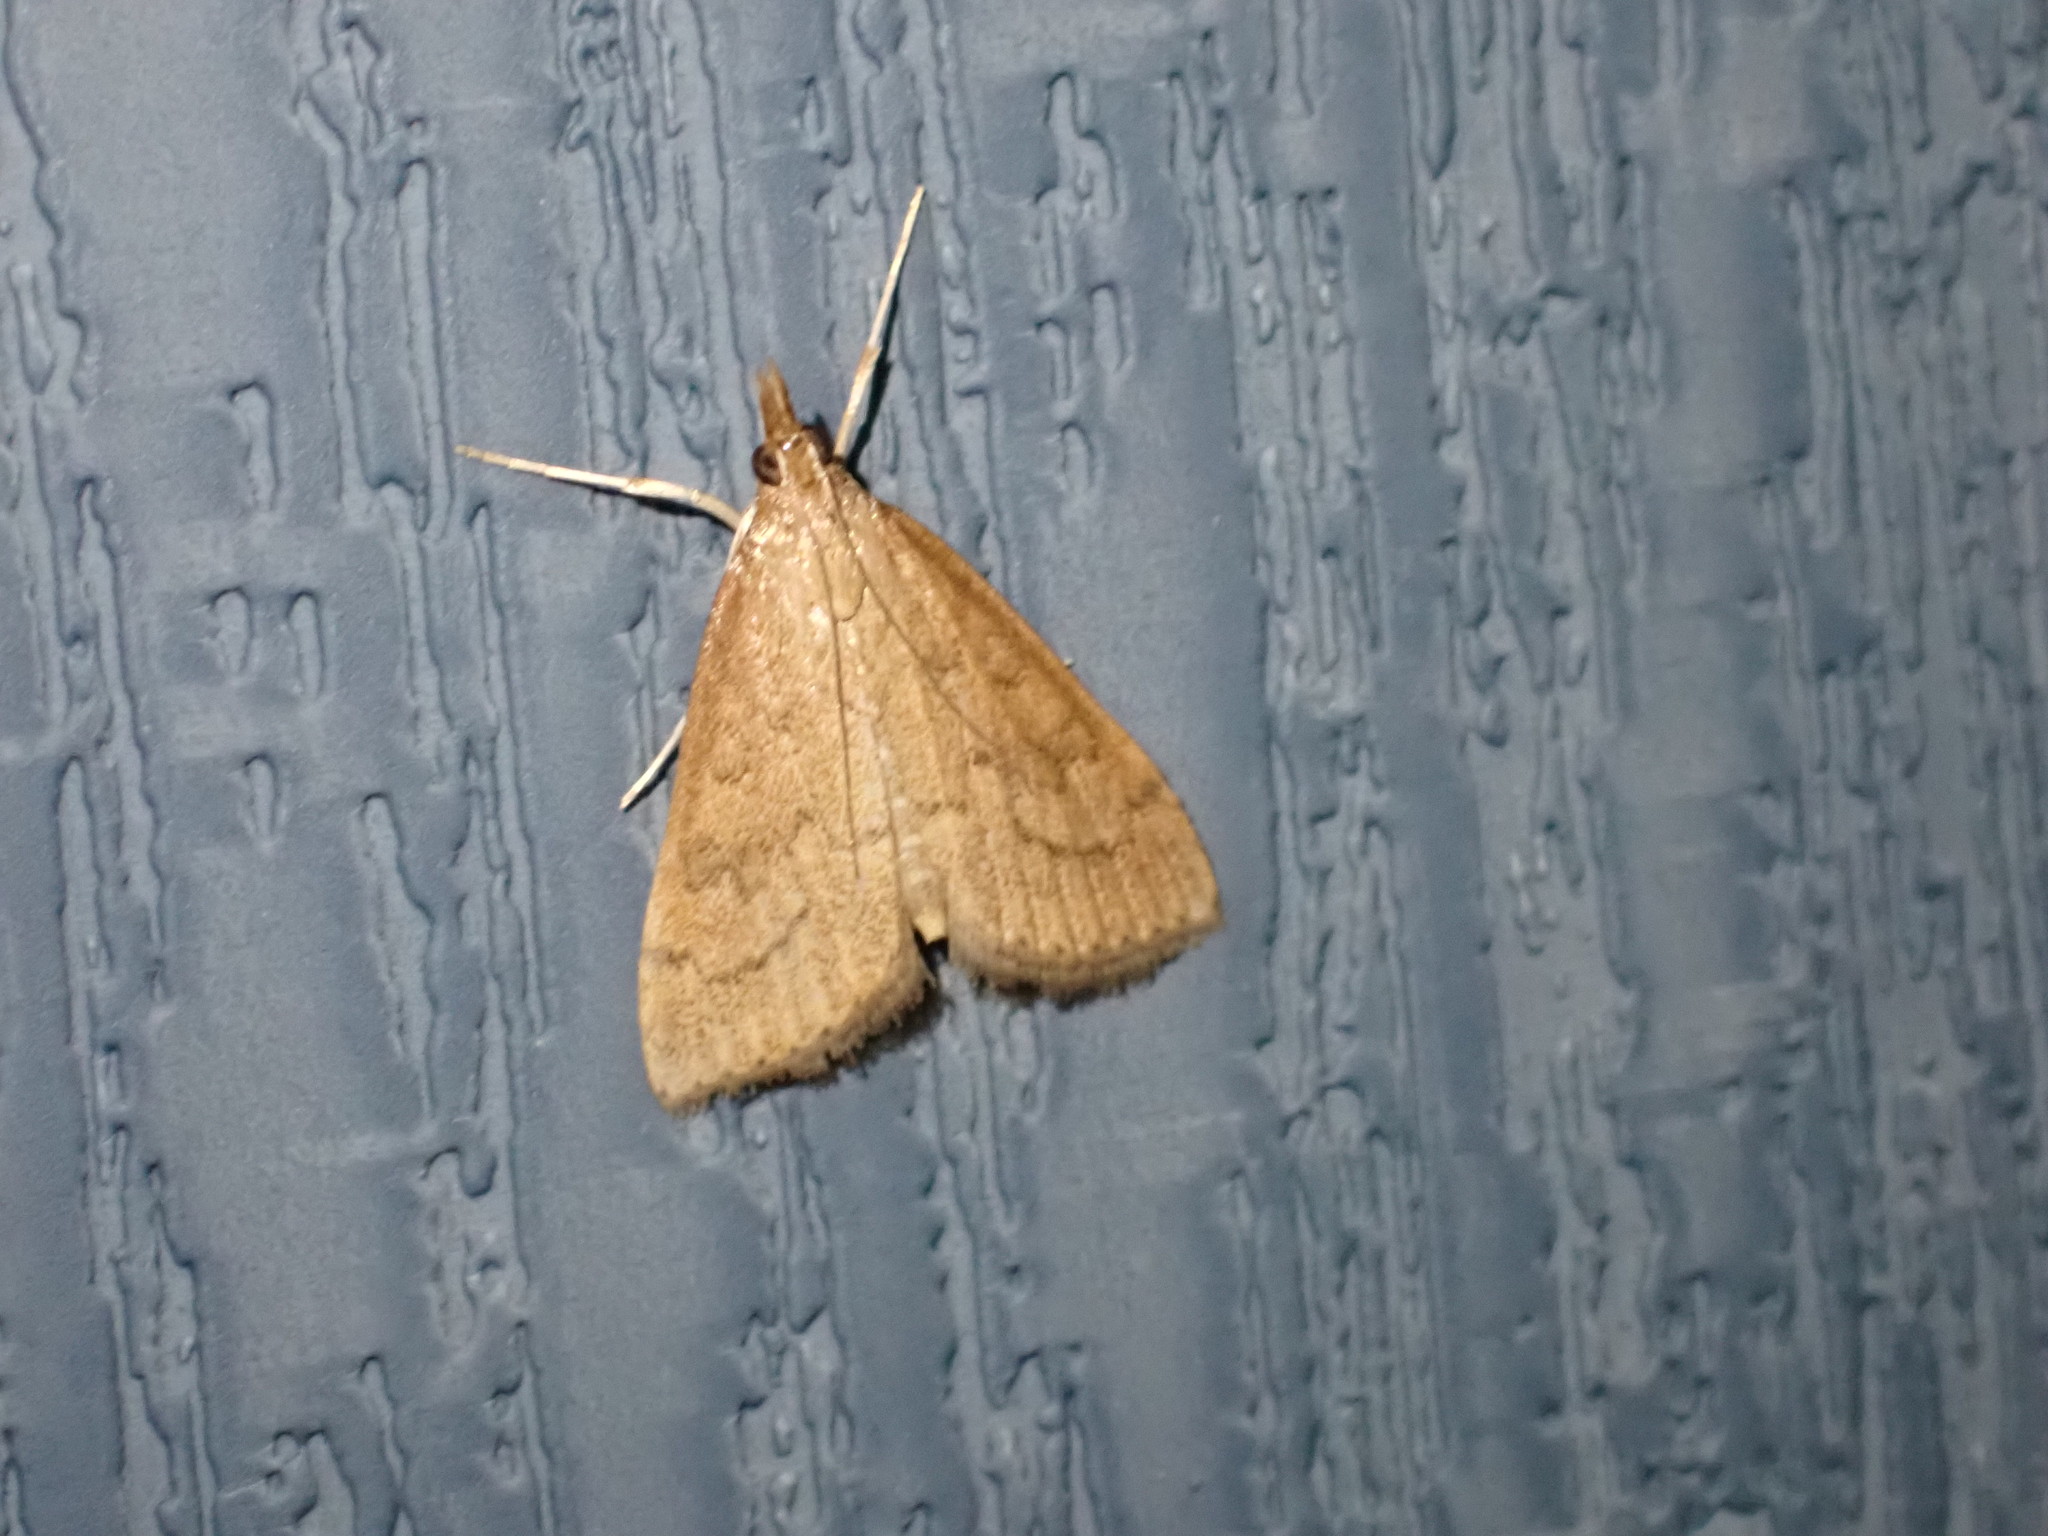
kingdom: Animalia
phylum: Arthropoda
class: Insecta
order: Lepidoptera
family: Crambidae
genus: Udea
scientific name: Udea rubigalis
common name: Celery leaftier moth
